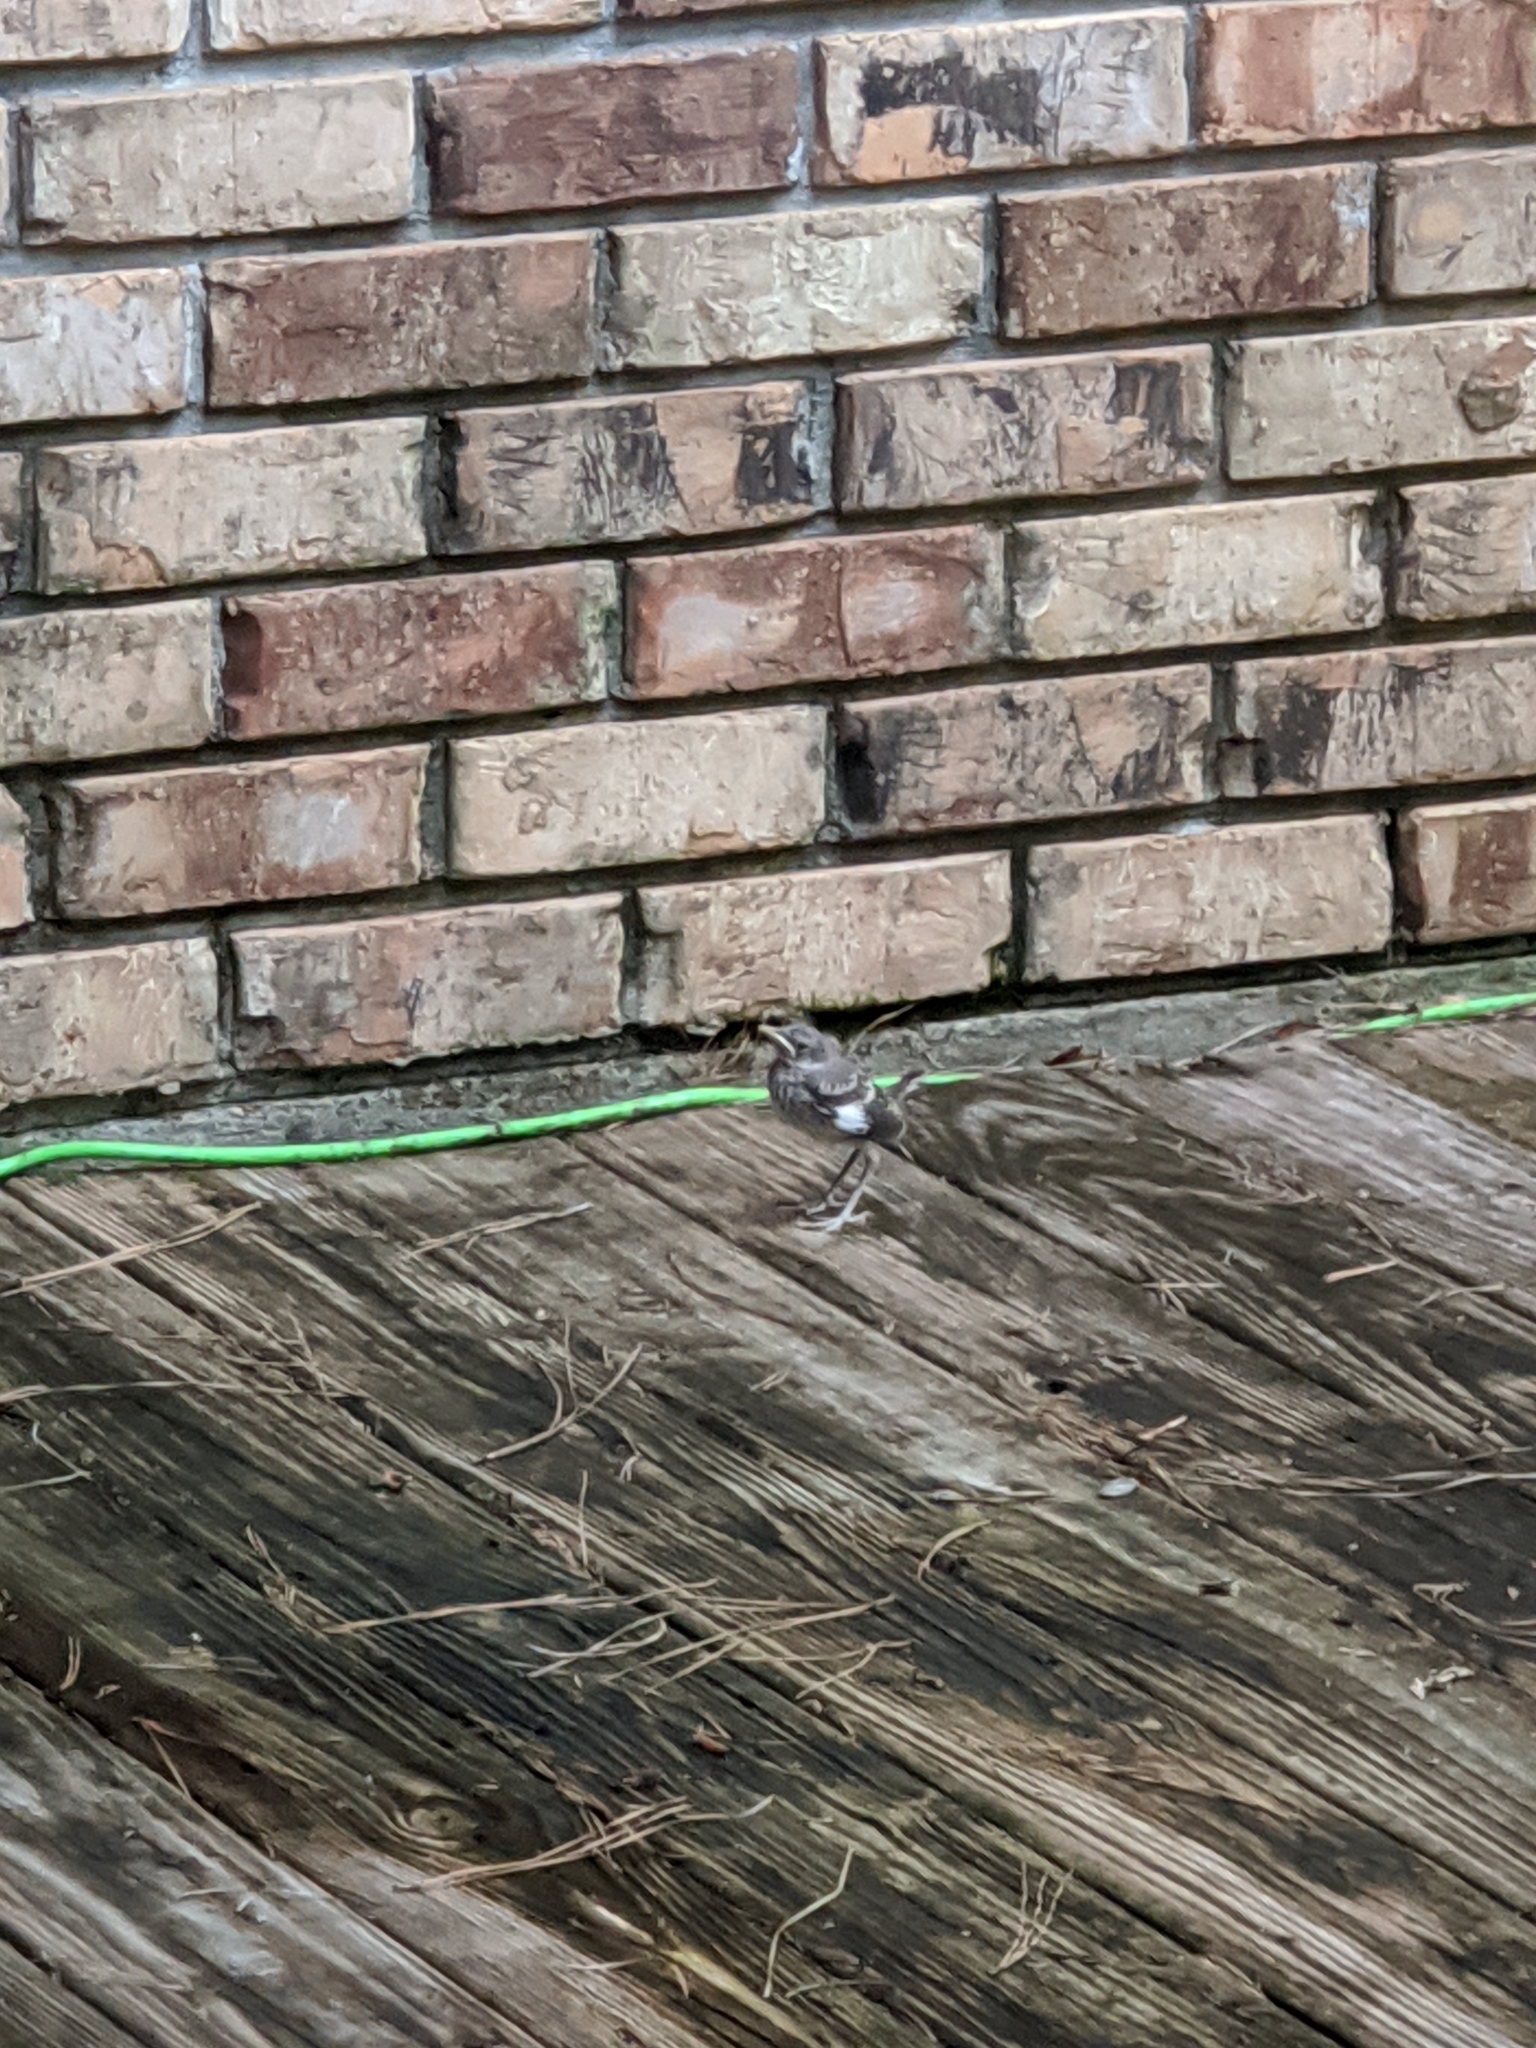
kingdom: Animalia
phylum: Chordata
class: Aves
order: Passeriformes
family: Mimidae
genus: Mimus
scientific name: Mimus polyglottos
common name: Northern mockingbird
